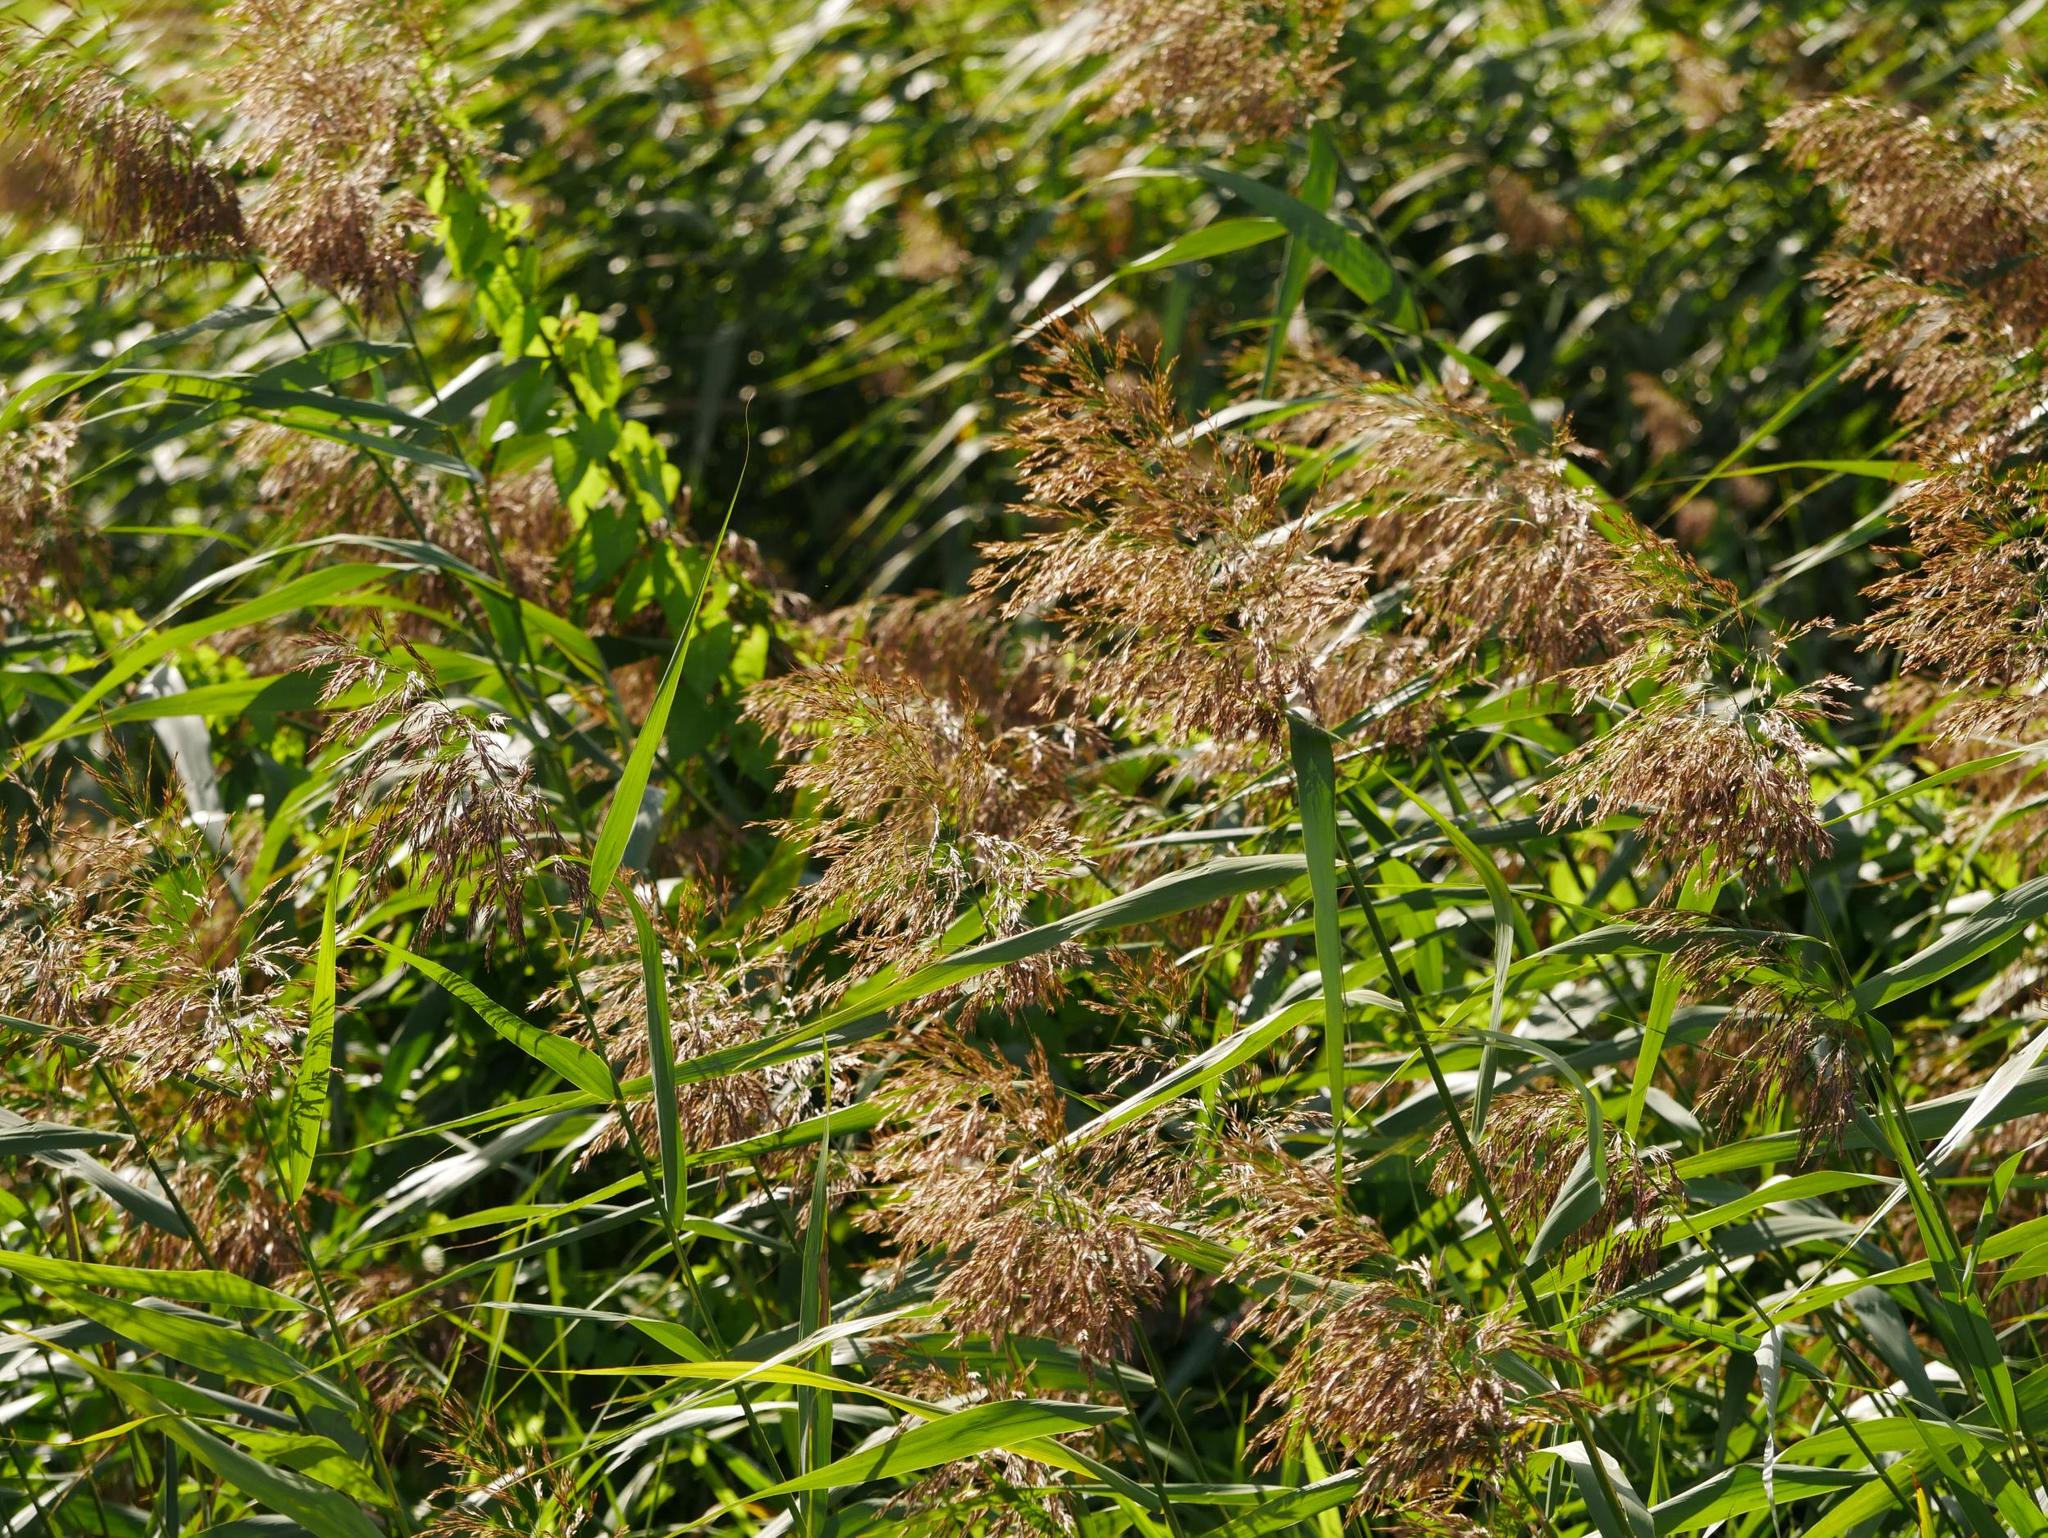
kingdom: Plantae
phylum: Tracheophyta
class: Liliopsida
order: Poales
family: Poaceae
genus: Phragmites
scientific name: Phragmites australis
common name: Common reed
